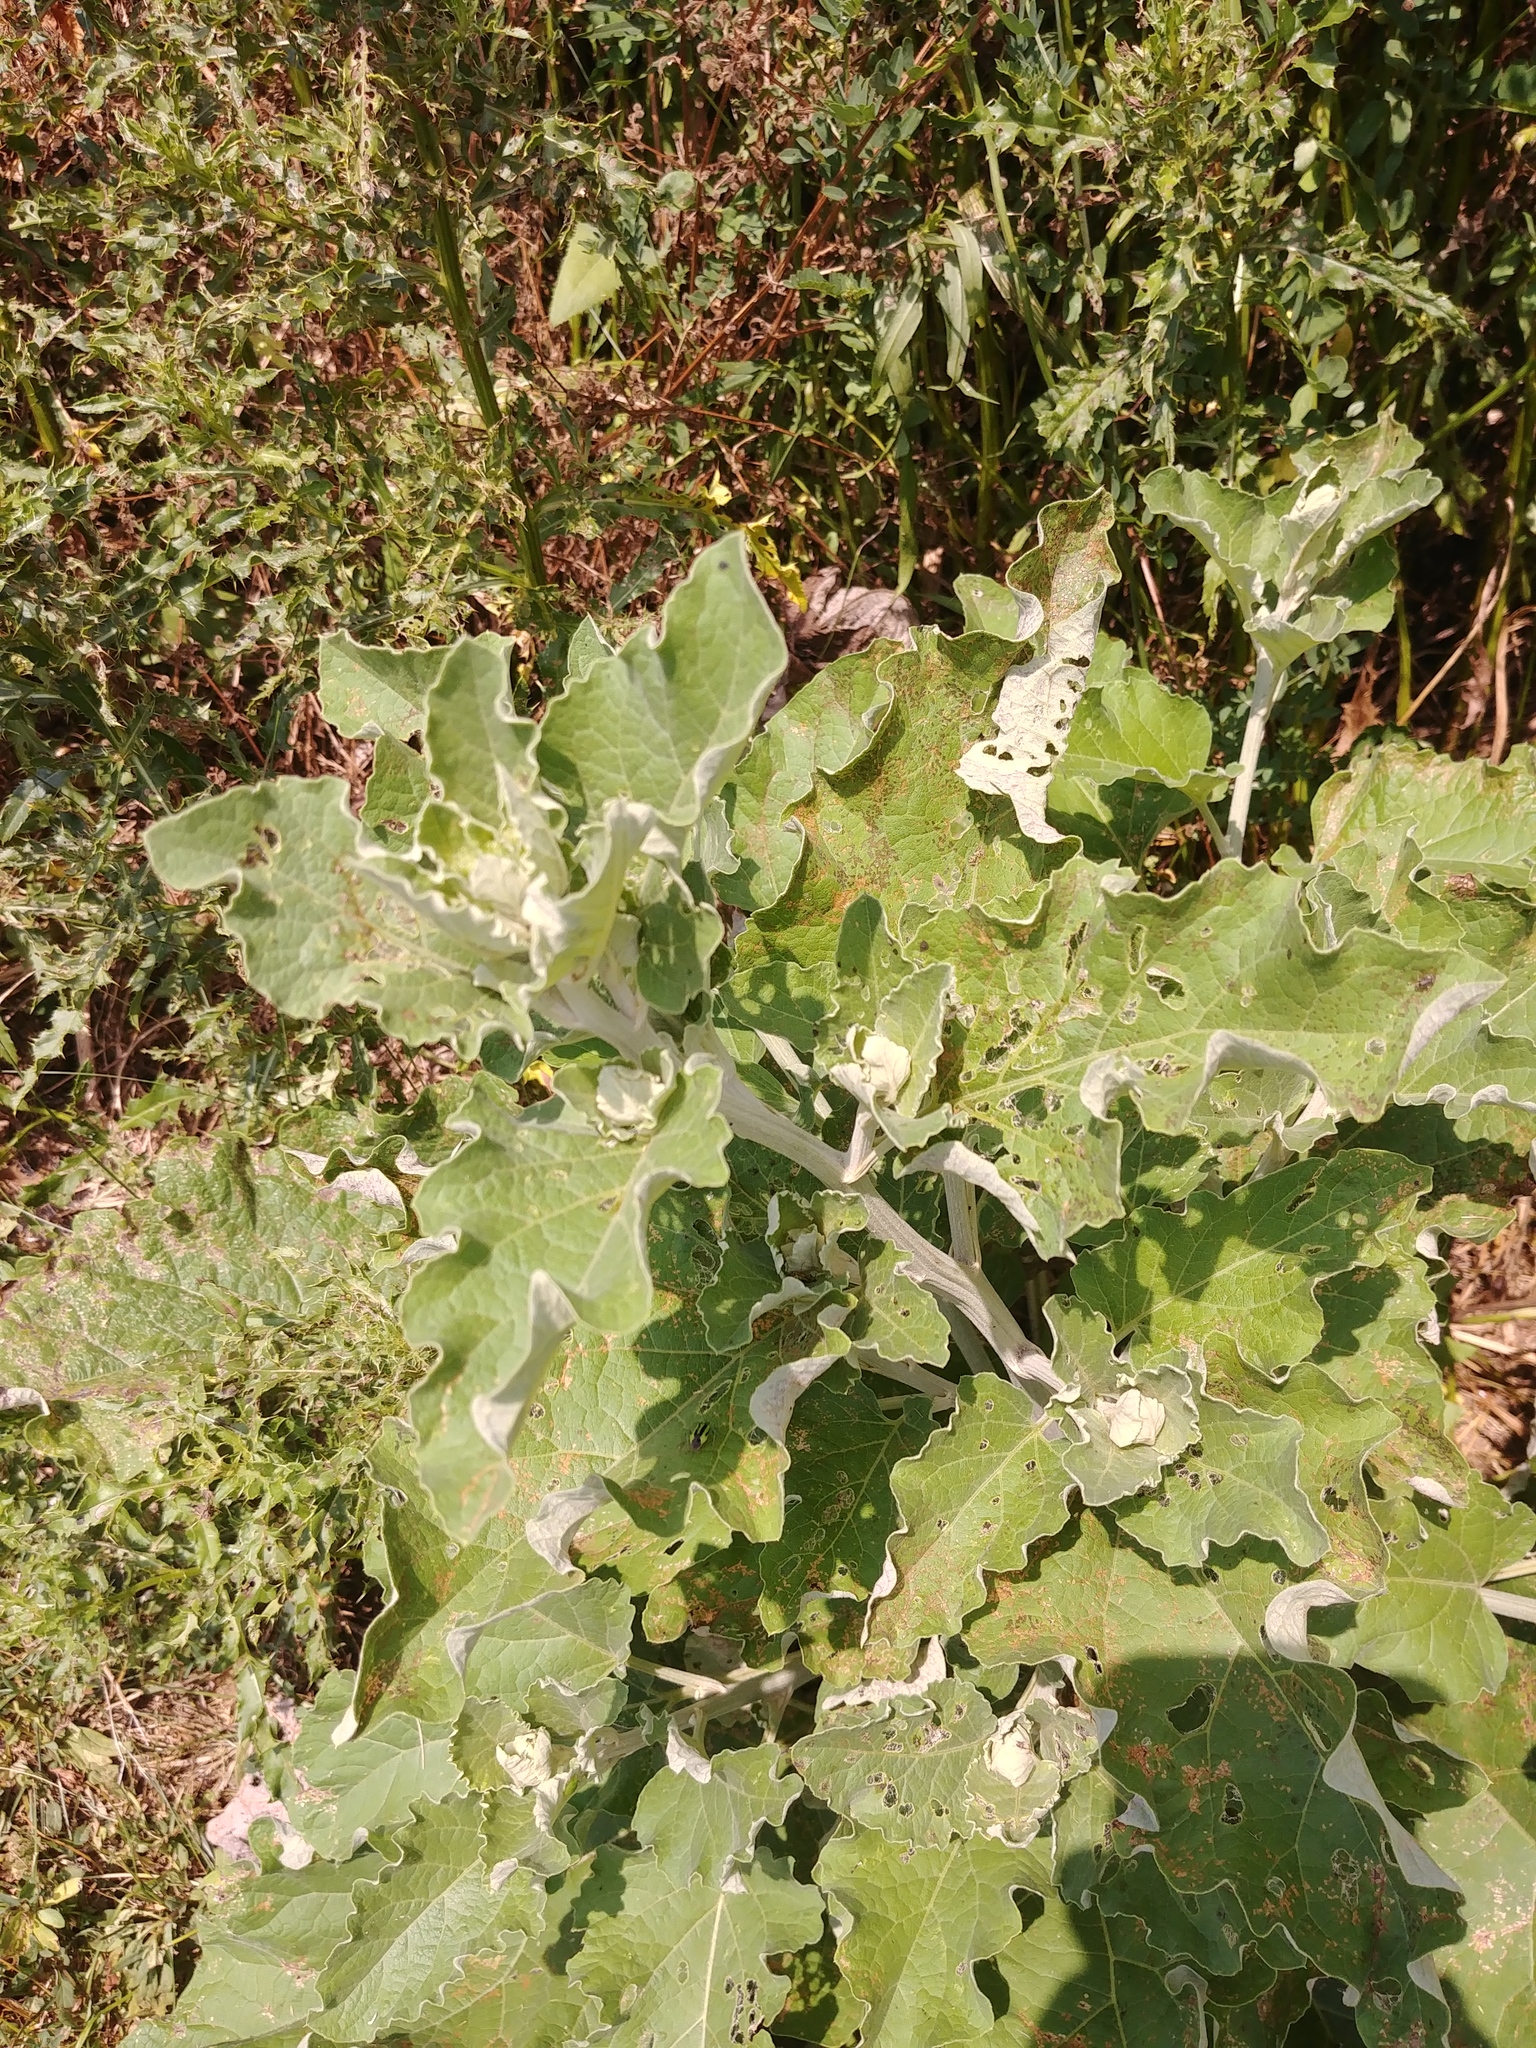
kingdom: Plantae
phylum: Tracheophyta
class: Magnoliopsida
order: Asterales
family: Asteraceae
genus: Xanthium
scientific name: Xanthium strumarium
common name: Rough cocklebur
